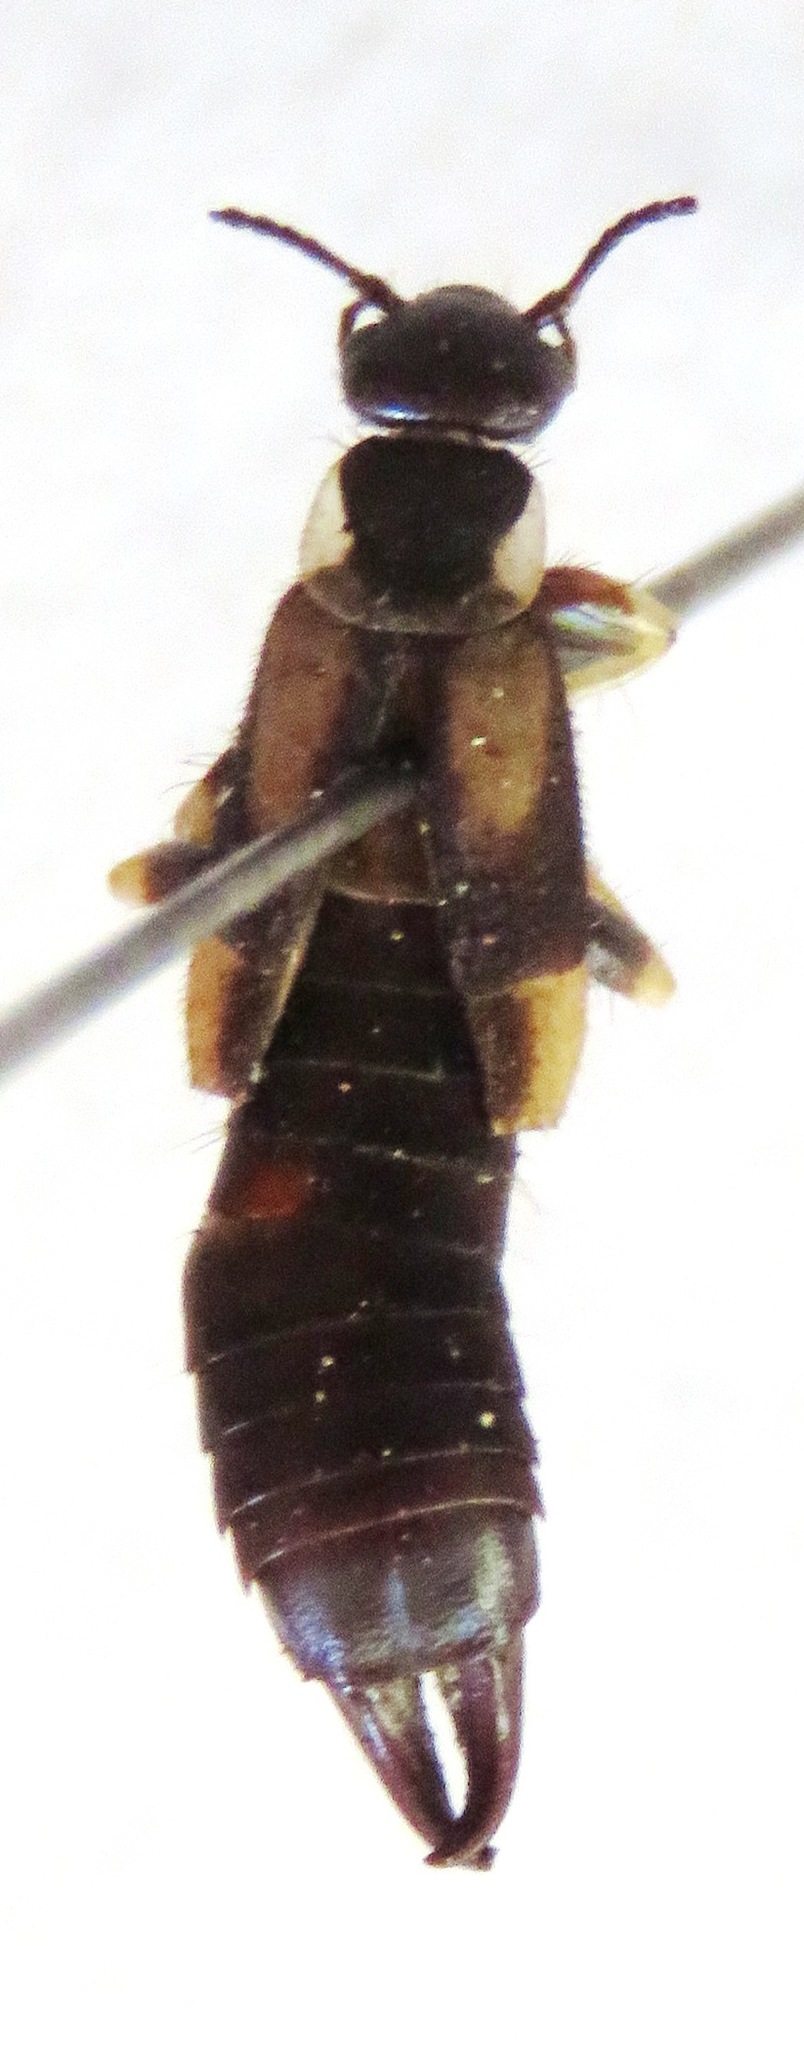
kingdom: Animalia
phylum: Arthropoda
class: Insecta
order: Dermaptera
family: Pygidicranidae
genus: Echinopsalis
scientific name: Echinopsalis guttata
